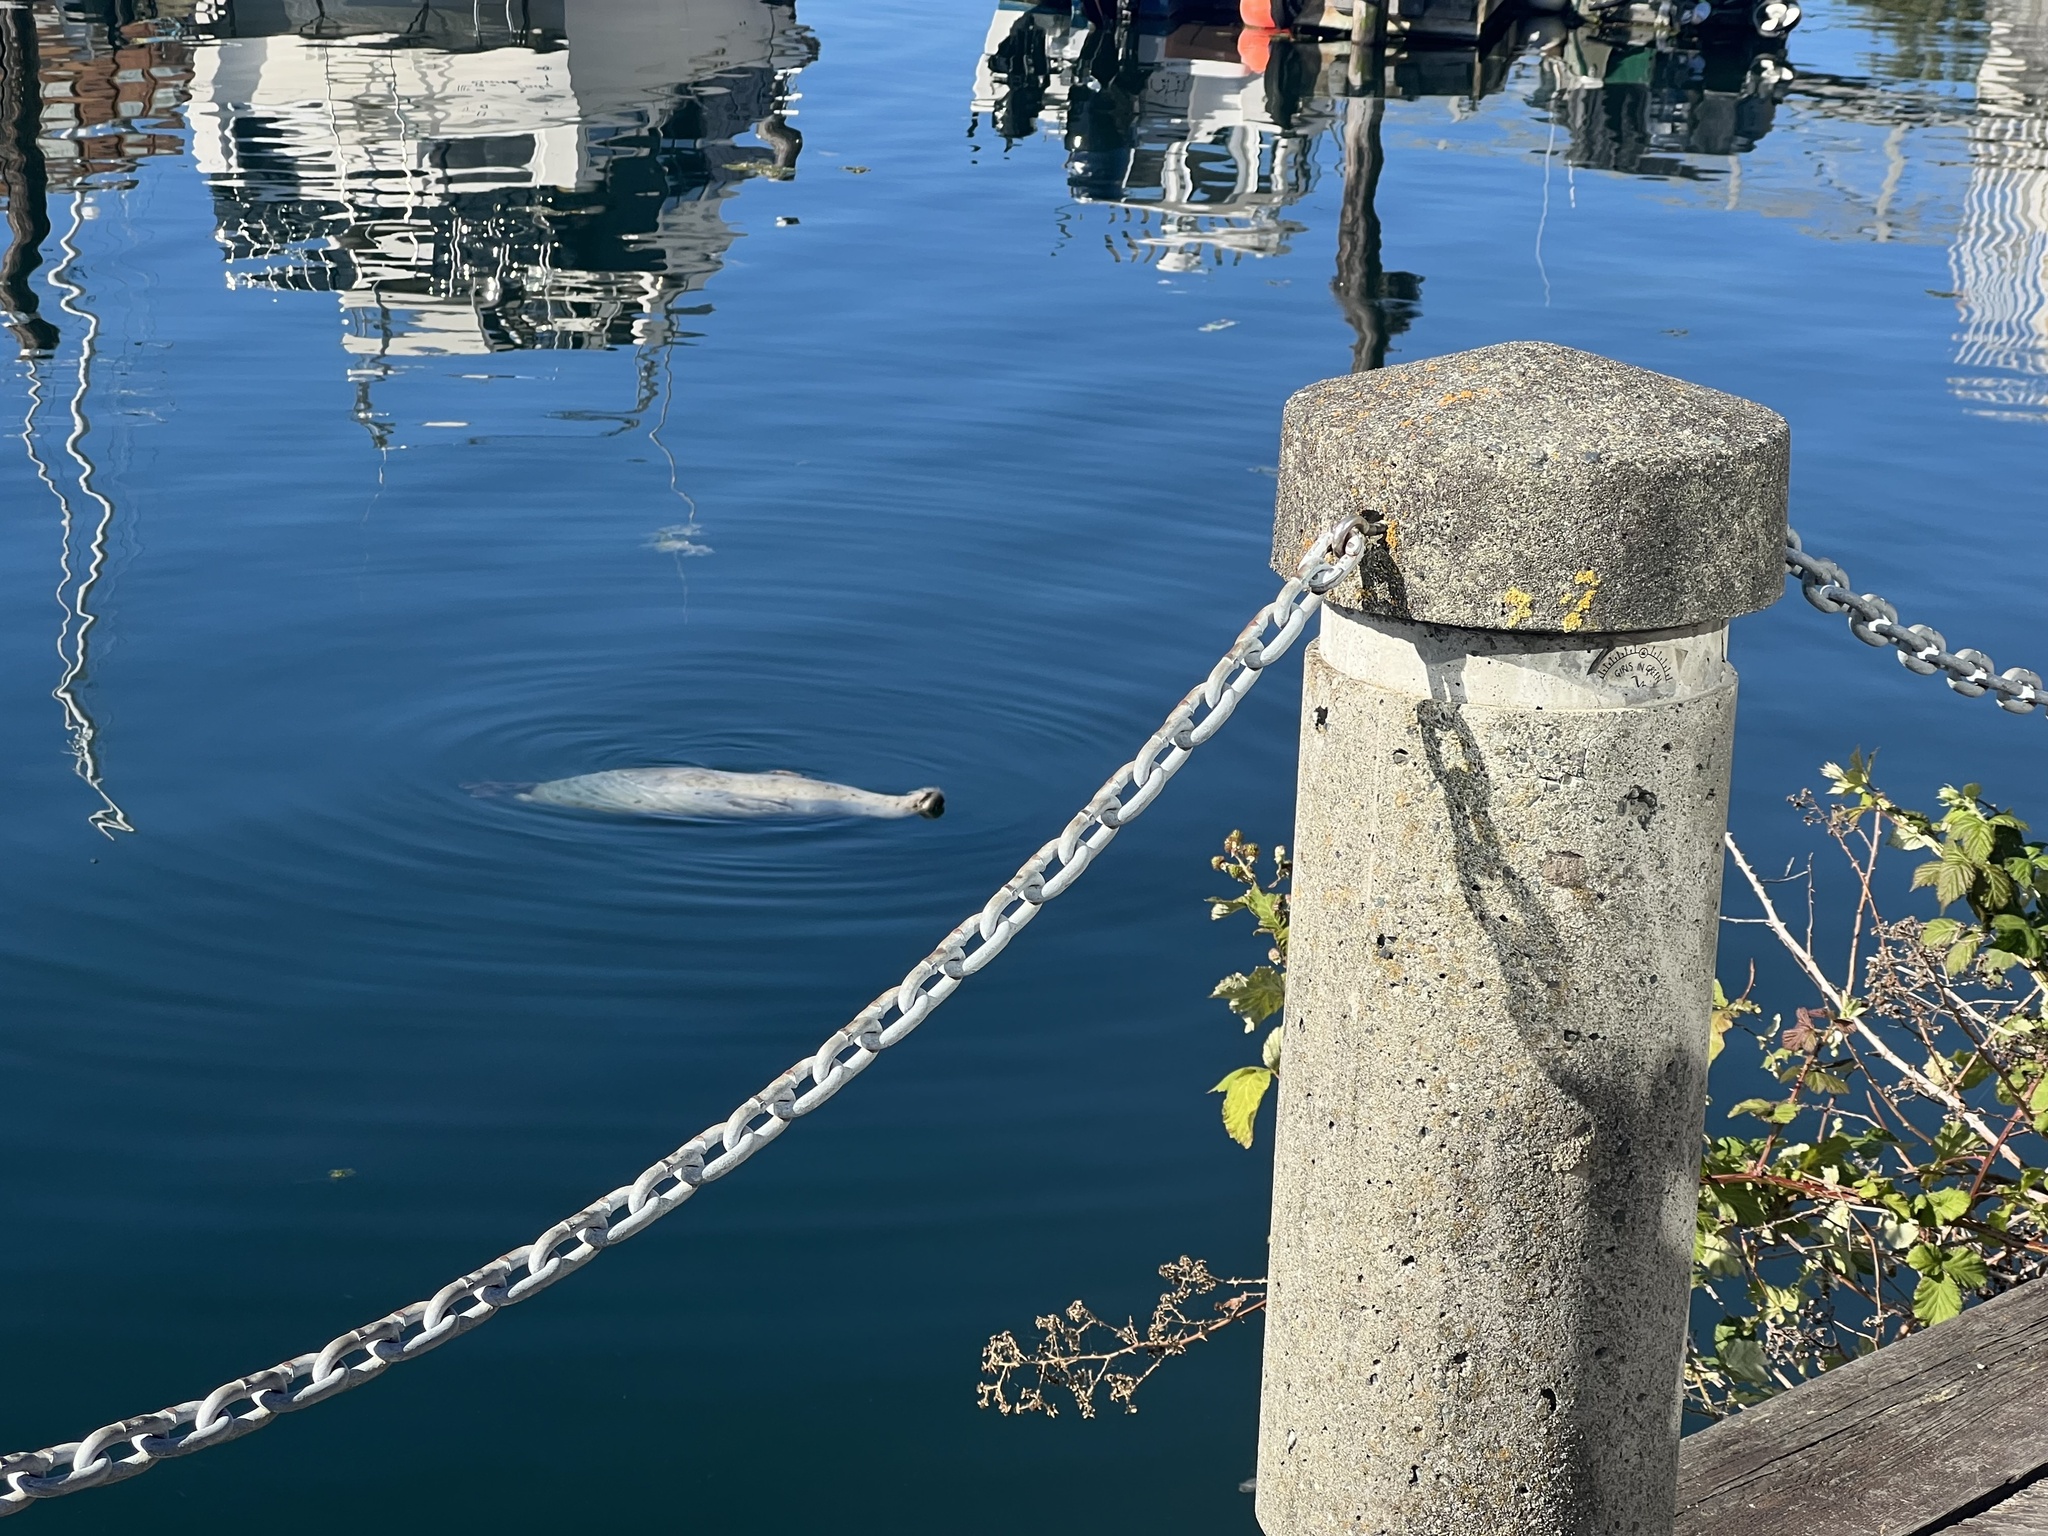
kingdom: Animalia
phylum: Chordata
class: Mammalia
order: Carnivora
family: Phocidae
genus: Phoca
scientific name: Phoca vitulina
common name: Harbor seal
